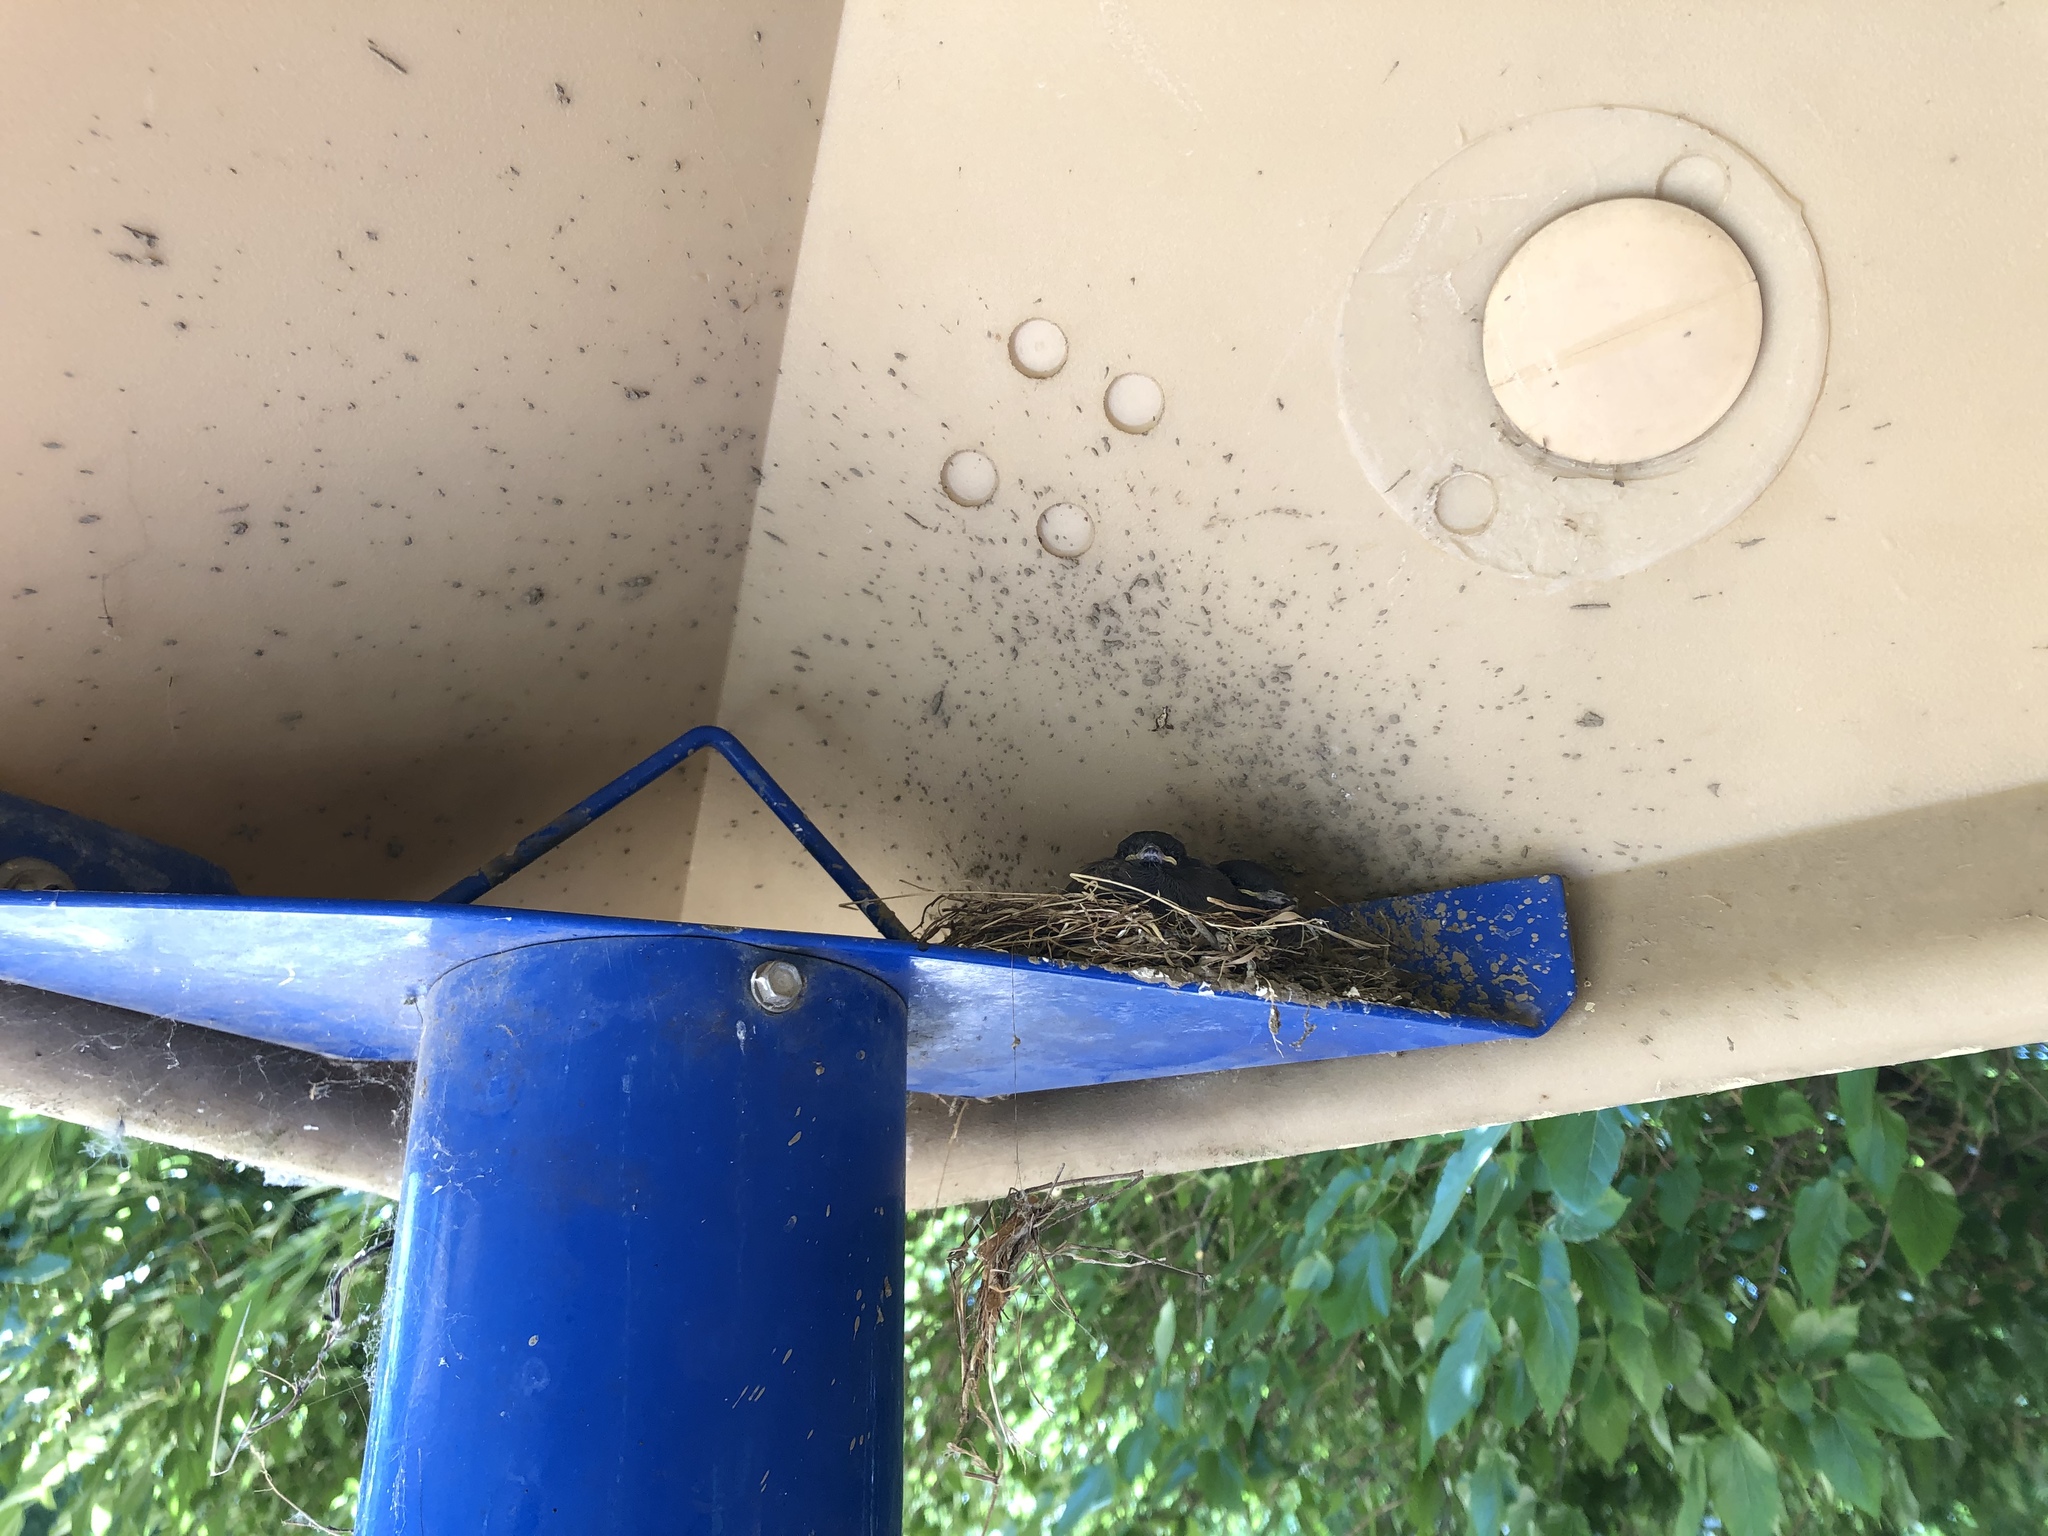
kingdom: Animalia
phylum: Chordata
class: Aves
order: Passeriformes
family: Tyrannidae
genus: Sayornis
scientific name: Sayornis nigricans
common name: Black phoebe
